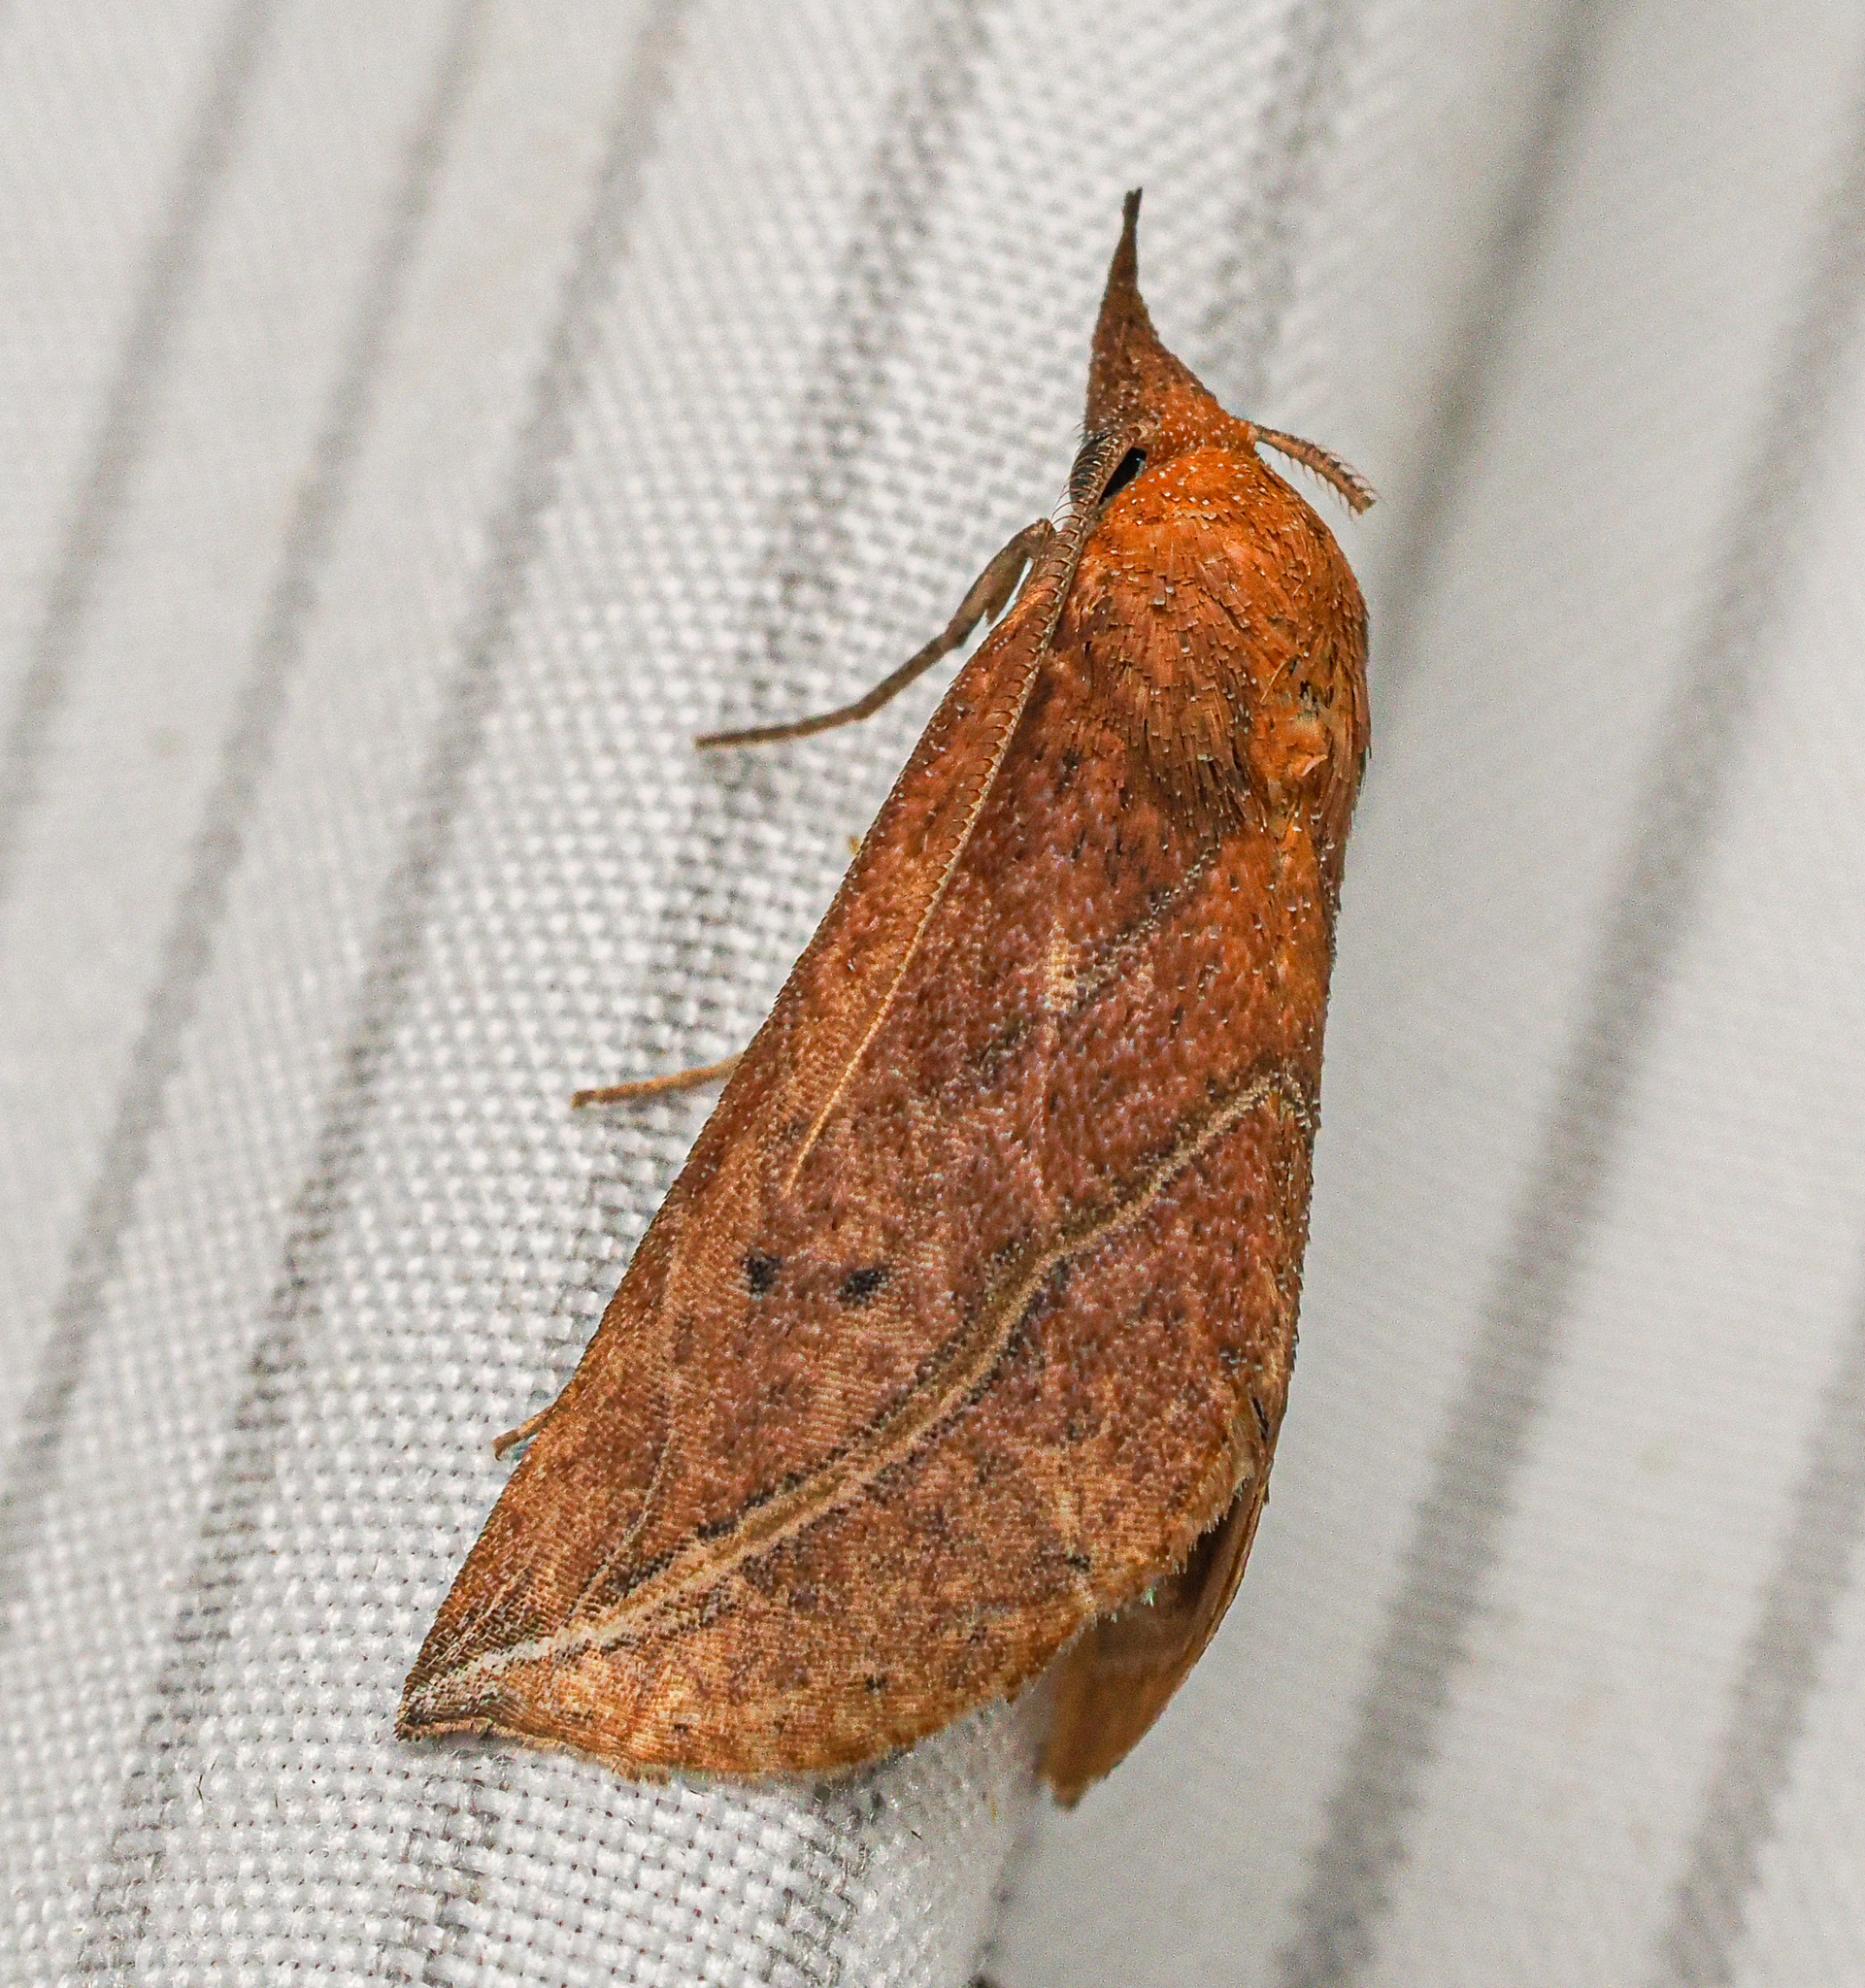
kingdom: Animalia
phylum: Arthropoda
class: Insecta
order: Lepidoptera
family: Erebidae
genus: Phyprosopus
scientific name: Phyprosopus callitrichoides
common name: Curved-lined owlet
